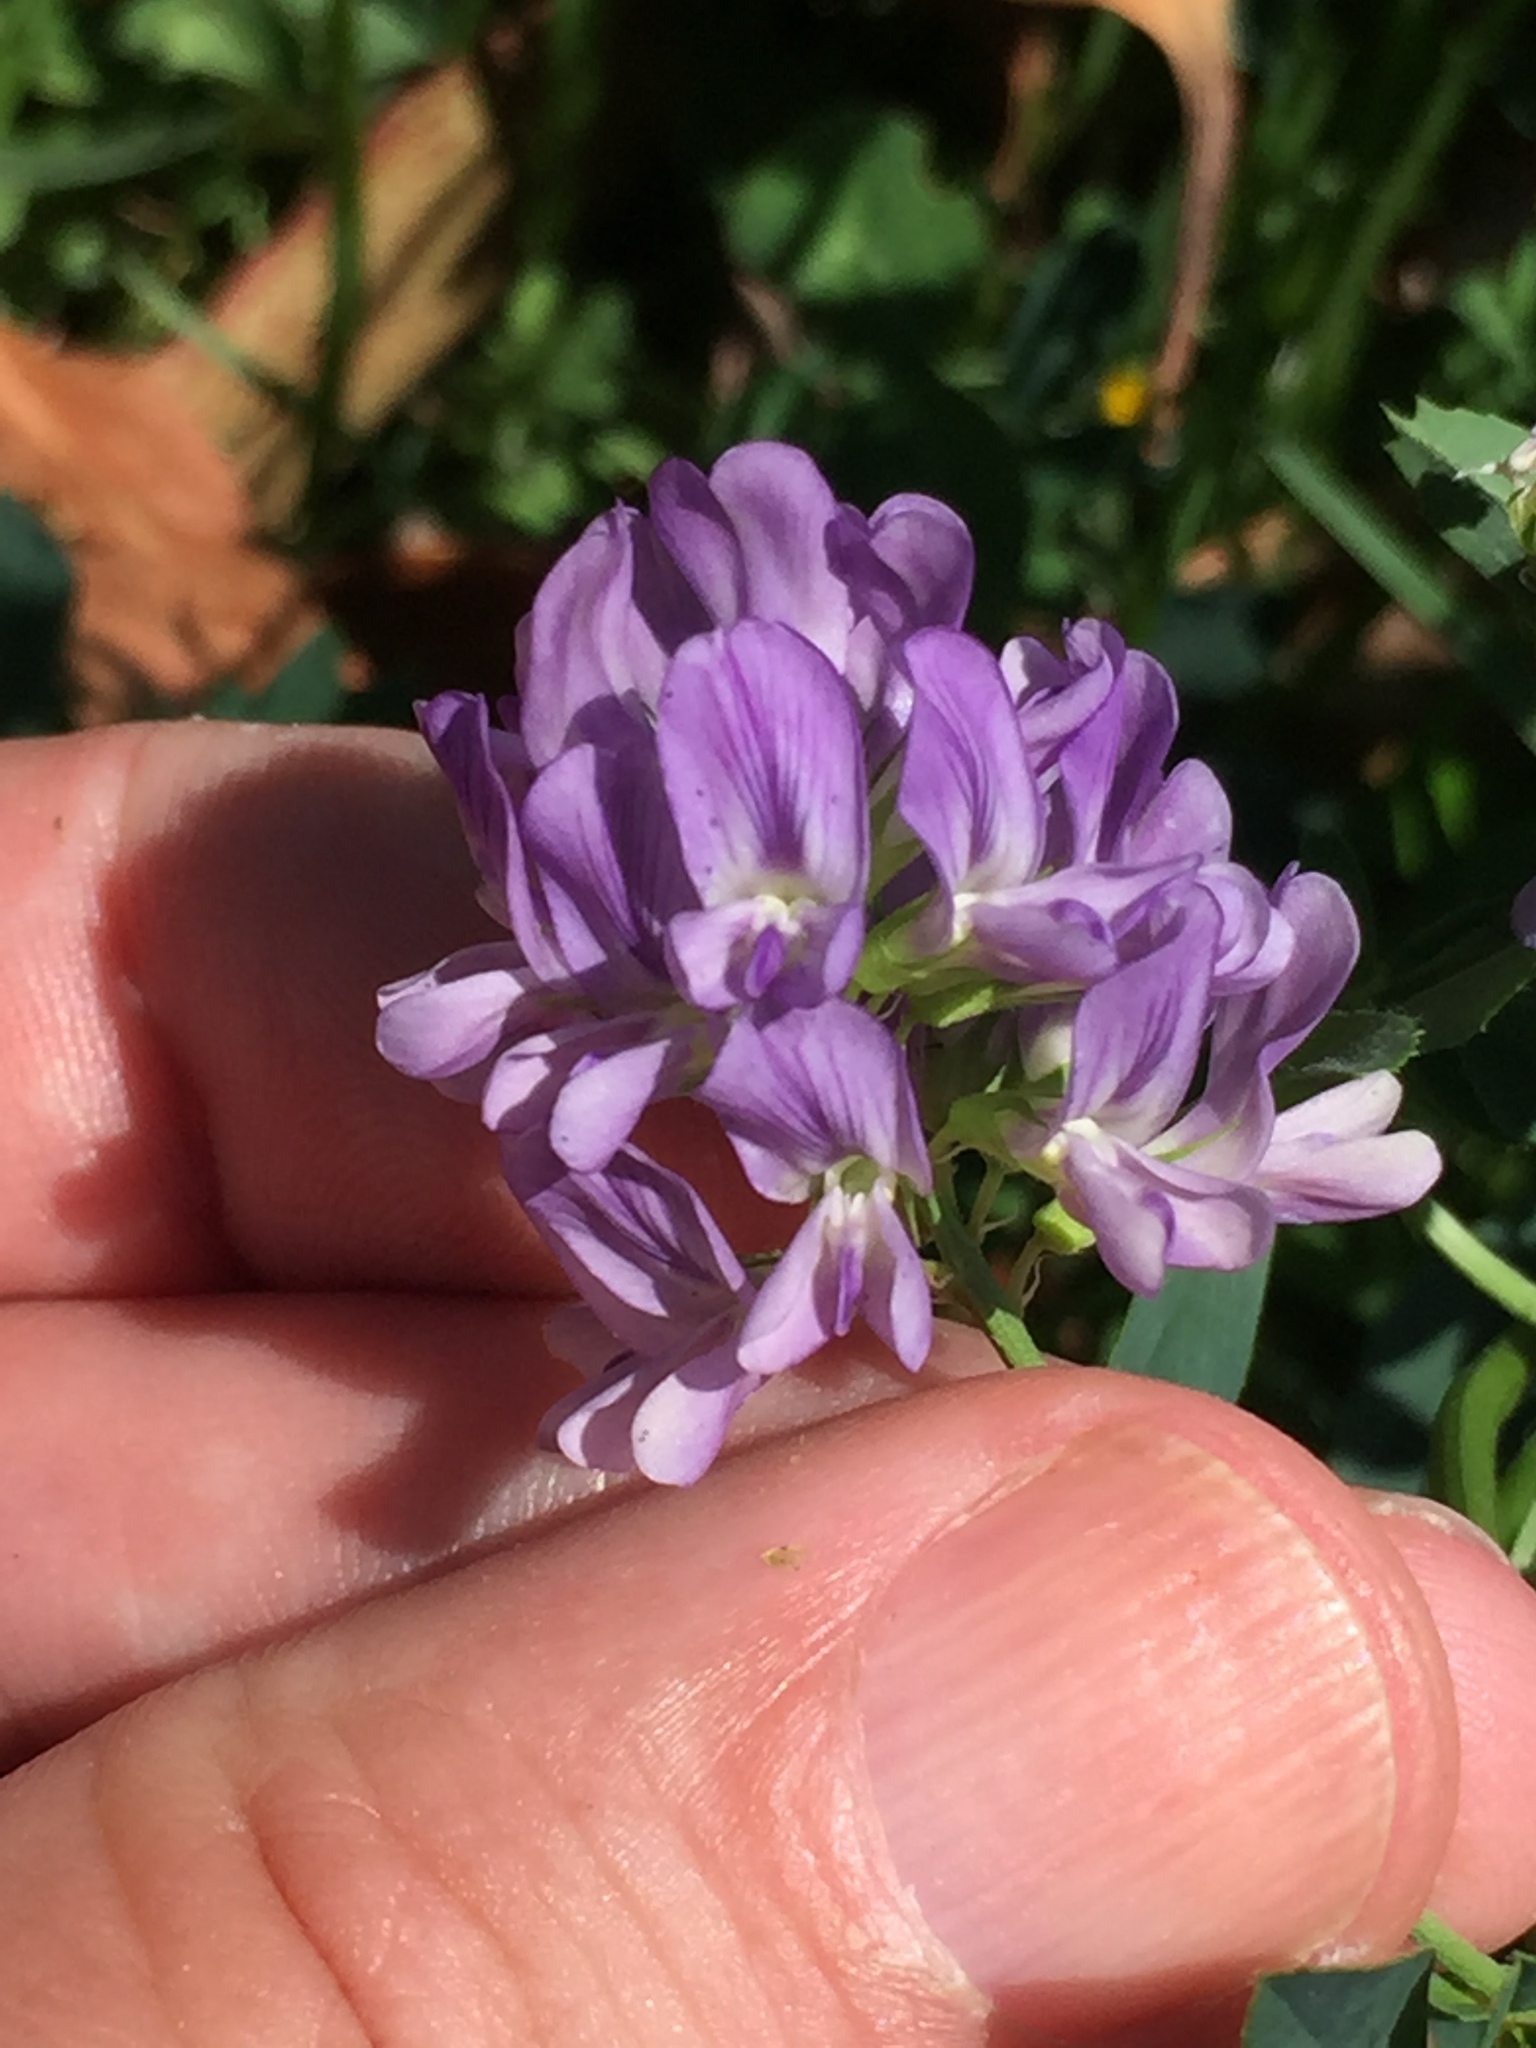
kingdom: Plantae
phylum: Tracheophyta
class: Magnoliopsida
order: Fabales
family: Fabaceae
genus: Medicago
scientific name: Medicago sativa
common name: Alfalfa
